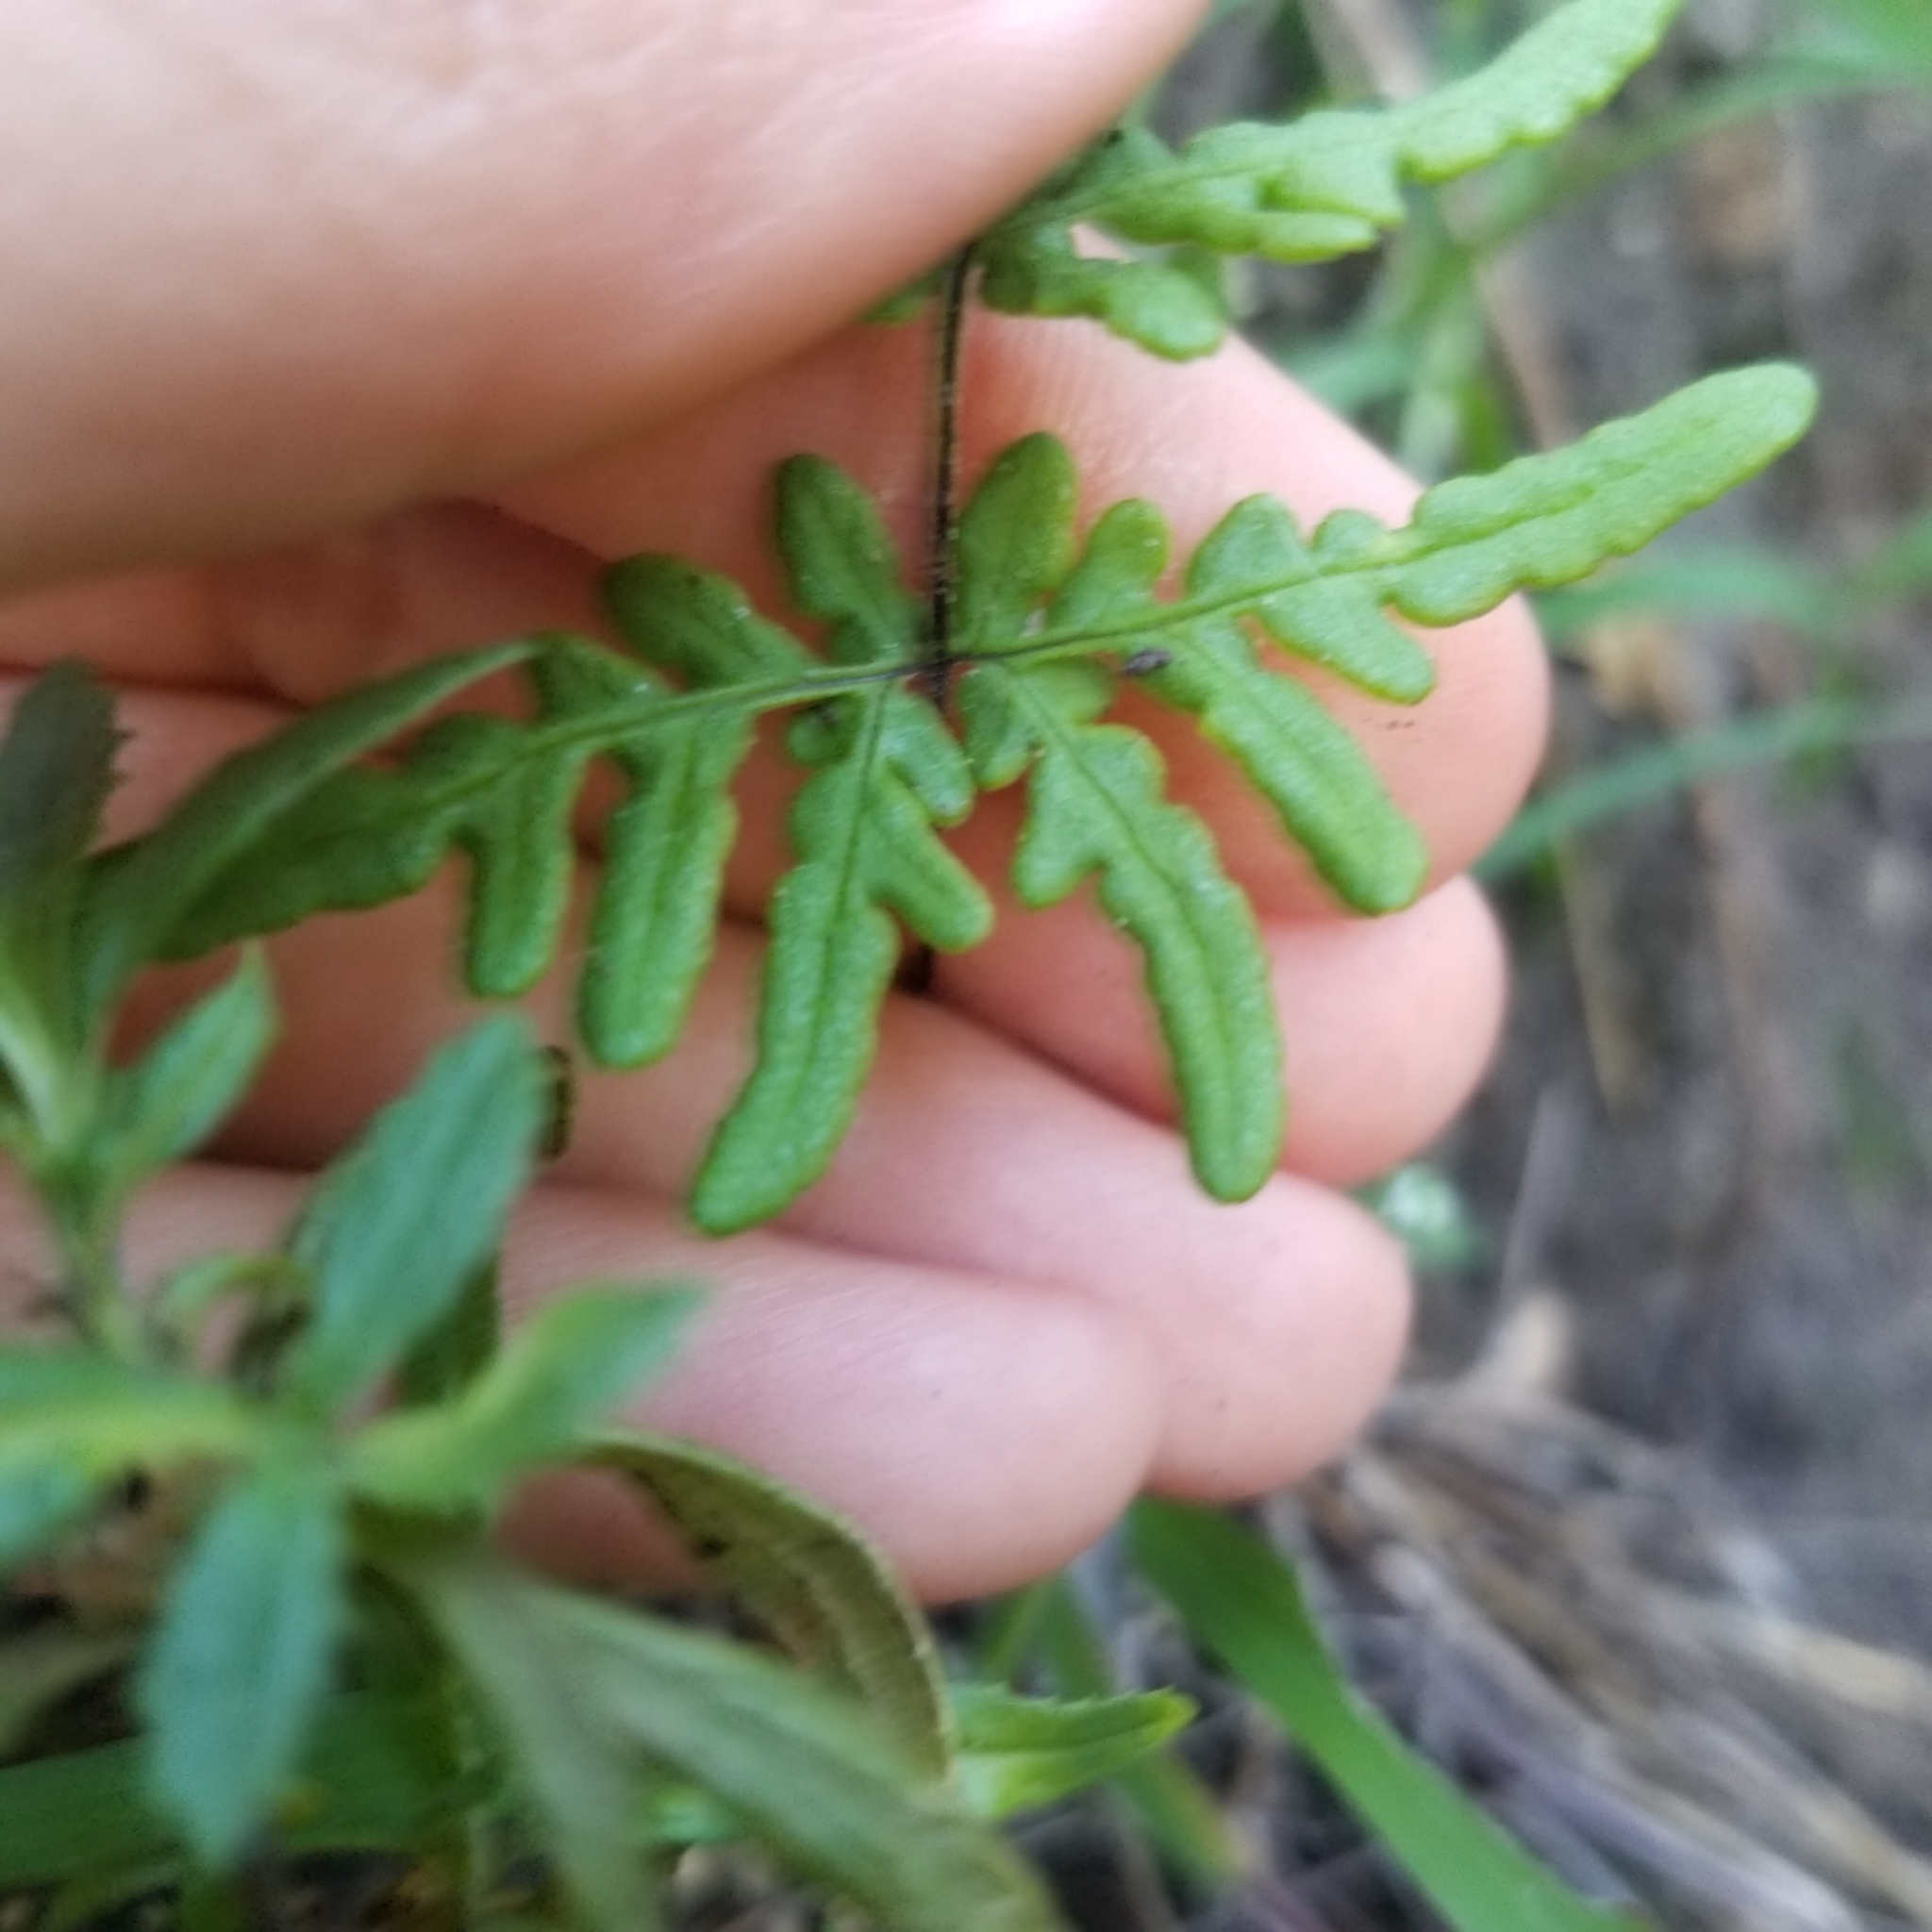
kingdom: Plantae
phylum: Tracheophyta
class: Polypodiopsida
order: Polypodiales
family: Pteridaceae
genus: Pentagramma
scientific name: Pentagramma viscosa
